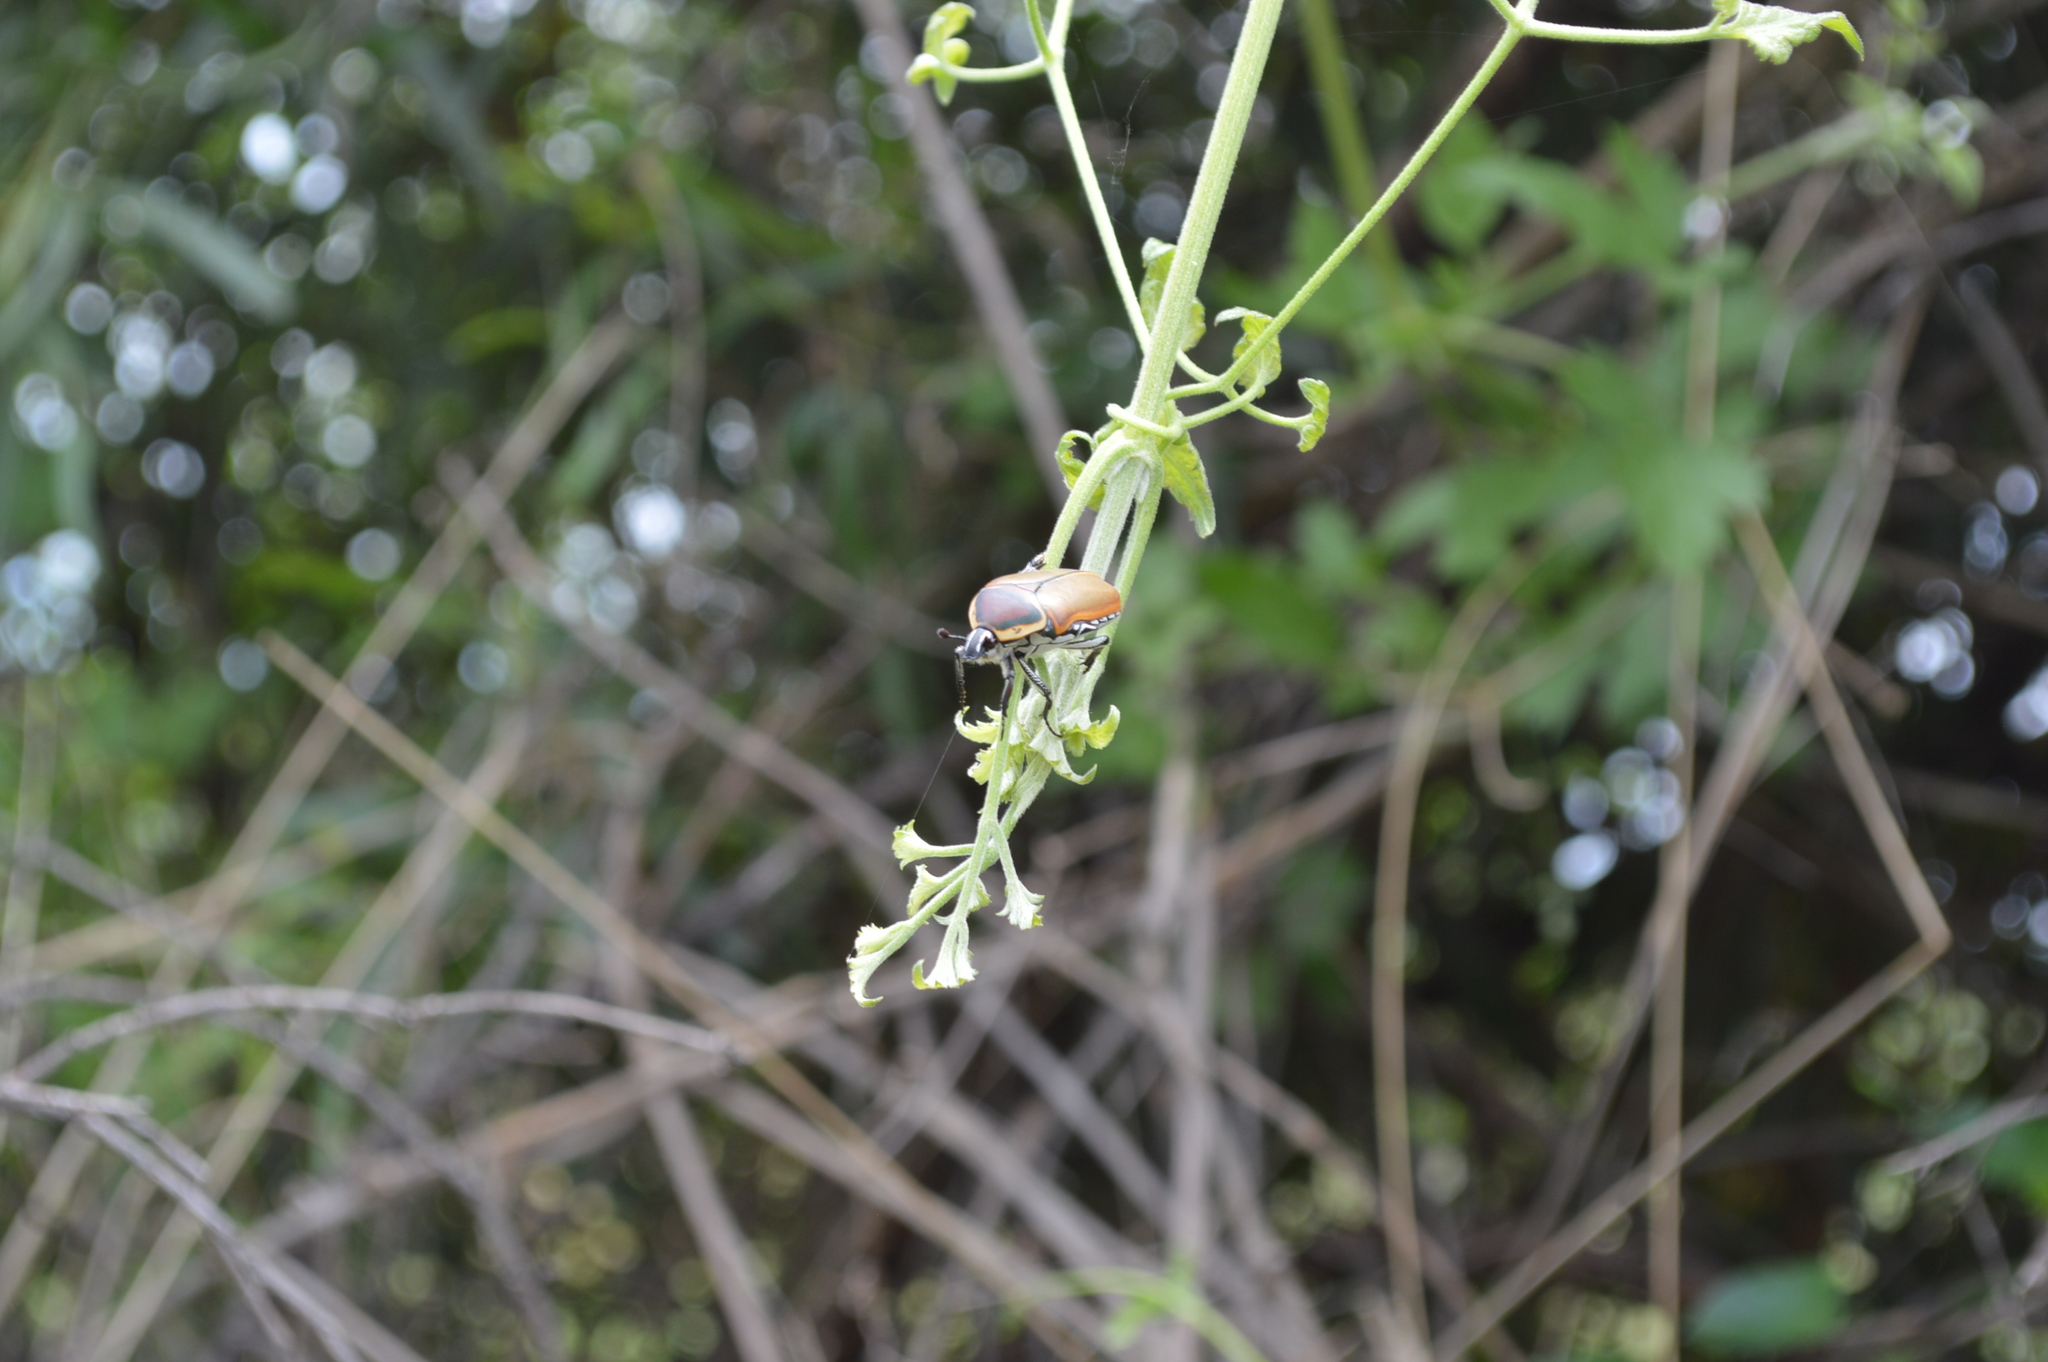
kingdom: Animalia
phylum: Arthropoda
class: Insecta
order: Coleoptera
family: Scarabaeidae
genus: Dischista
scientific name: Dischista cincta
